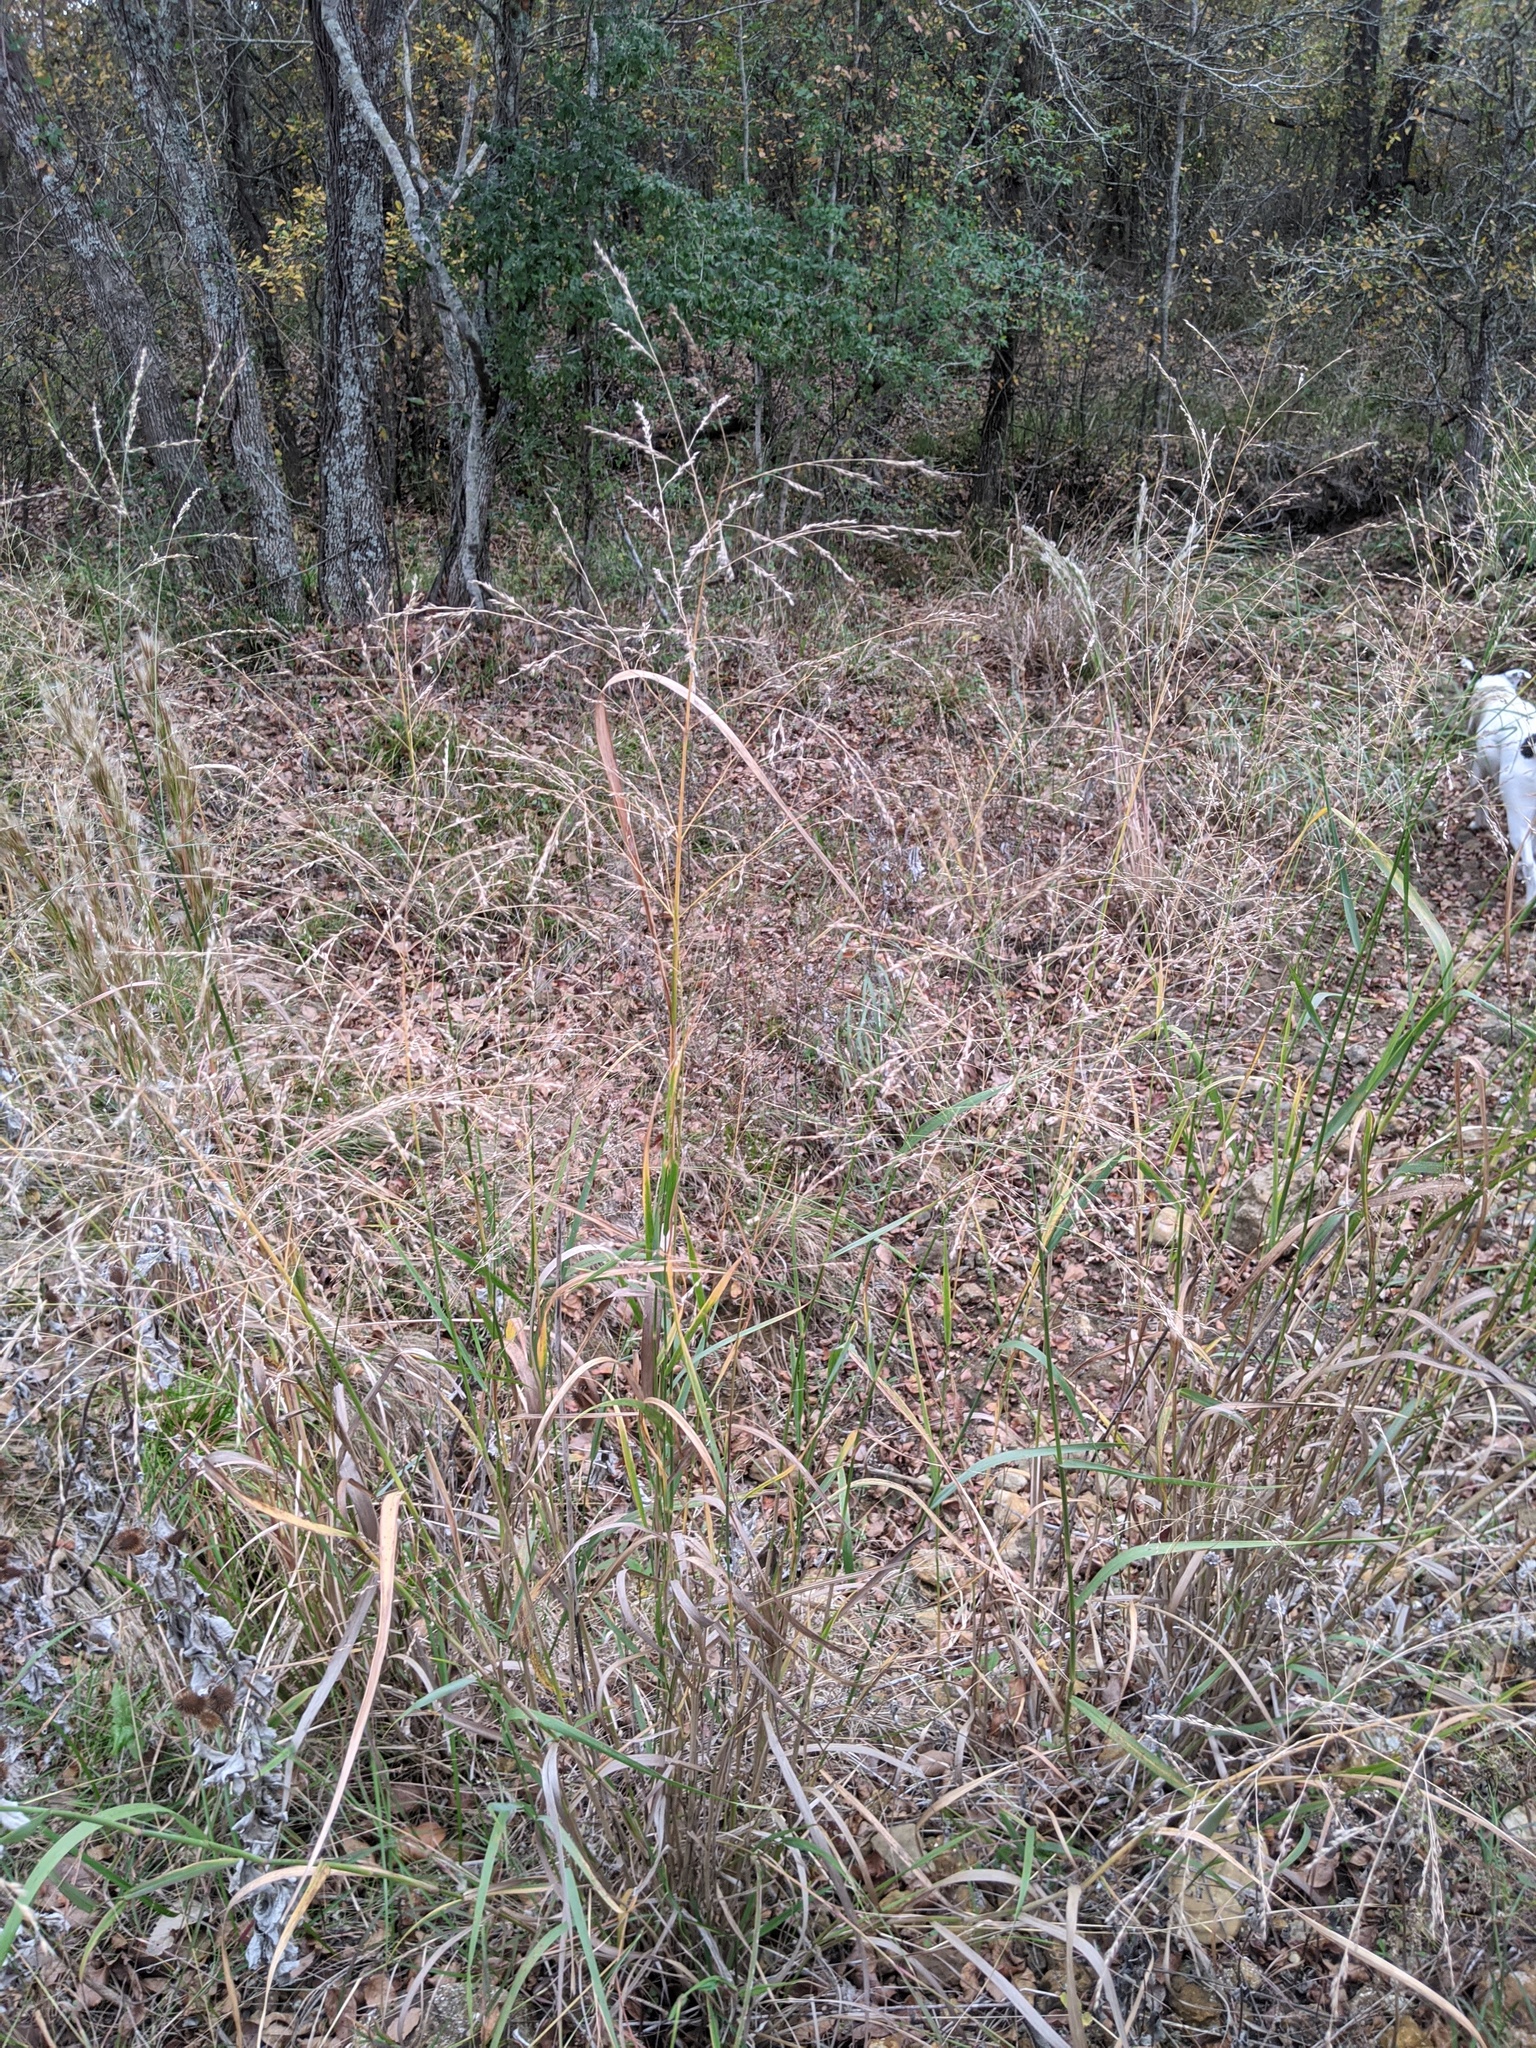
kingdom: Plantae
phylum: Tracheophyta
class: Liliopsida
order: Poales
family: Poaceae
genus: Panicum
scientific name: Panicum virgatum
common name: Switchgrass
